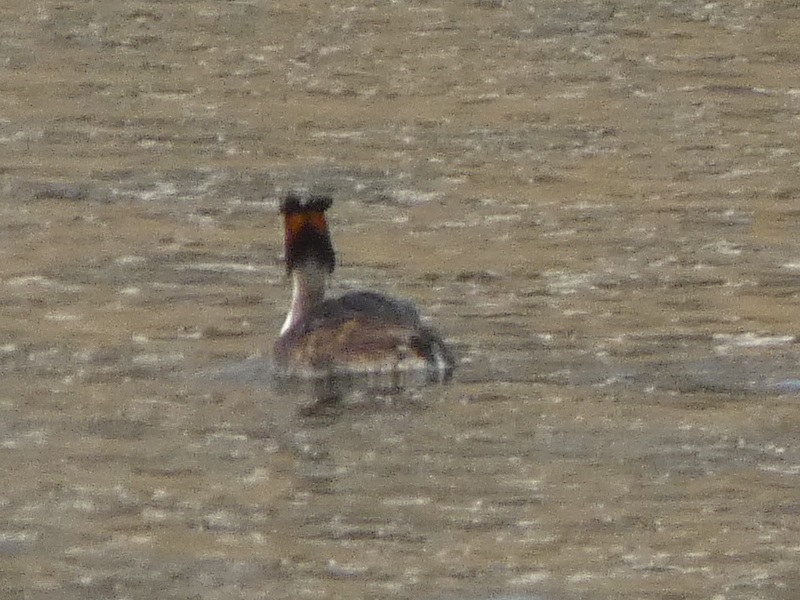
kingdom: Animalia
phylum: Chordata
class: Aves
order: Podicipediformes
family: Podicipedidae
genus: Podiceps
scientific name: Podiceps cristatus
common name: Great crested grebe
